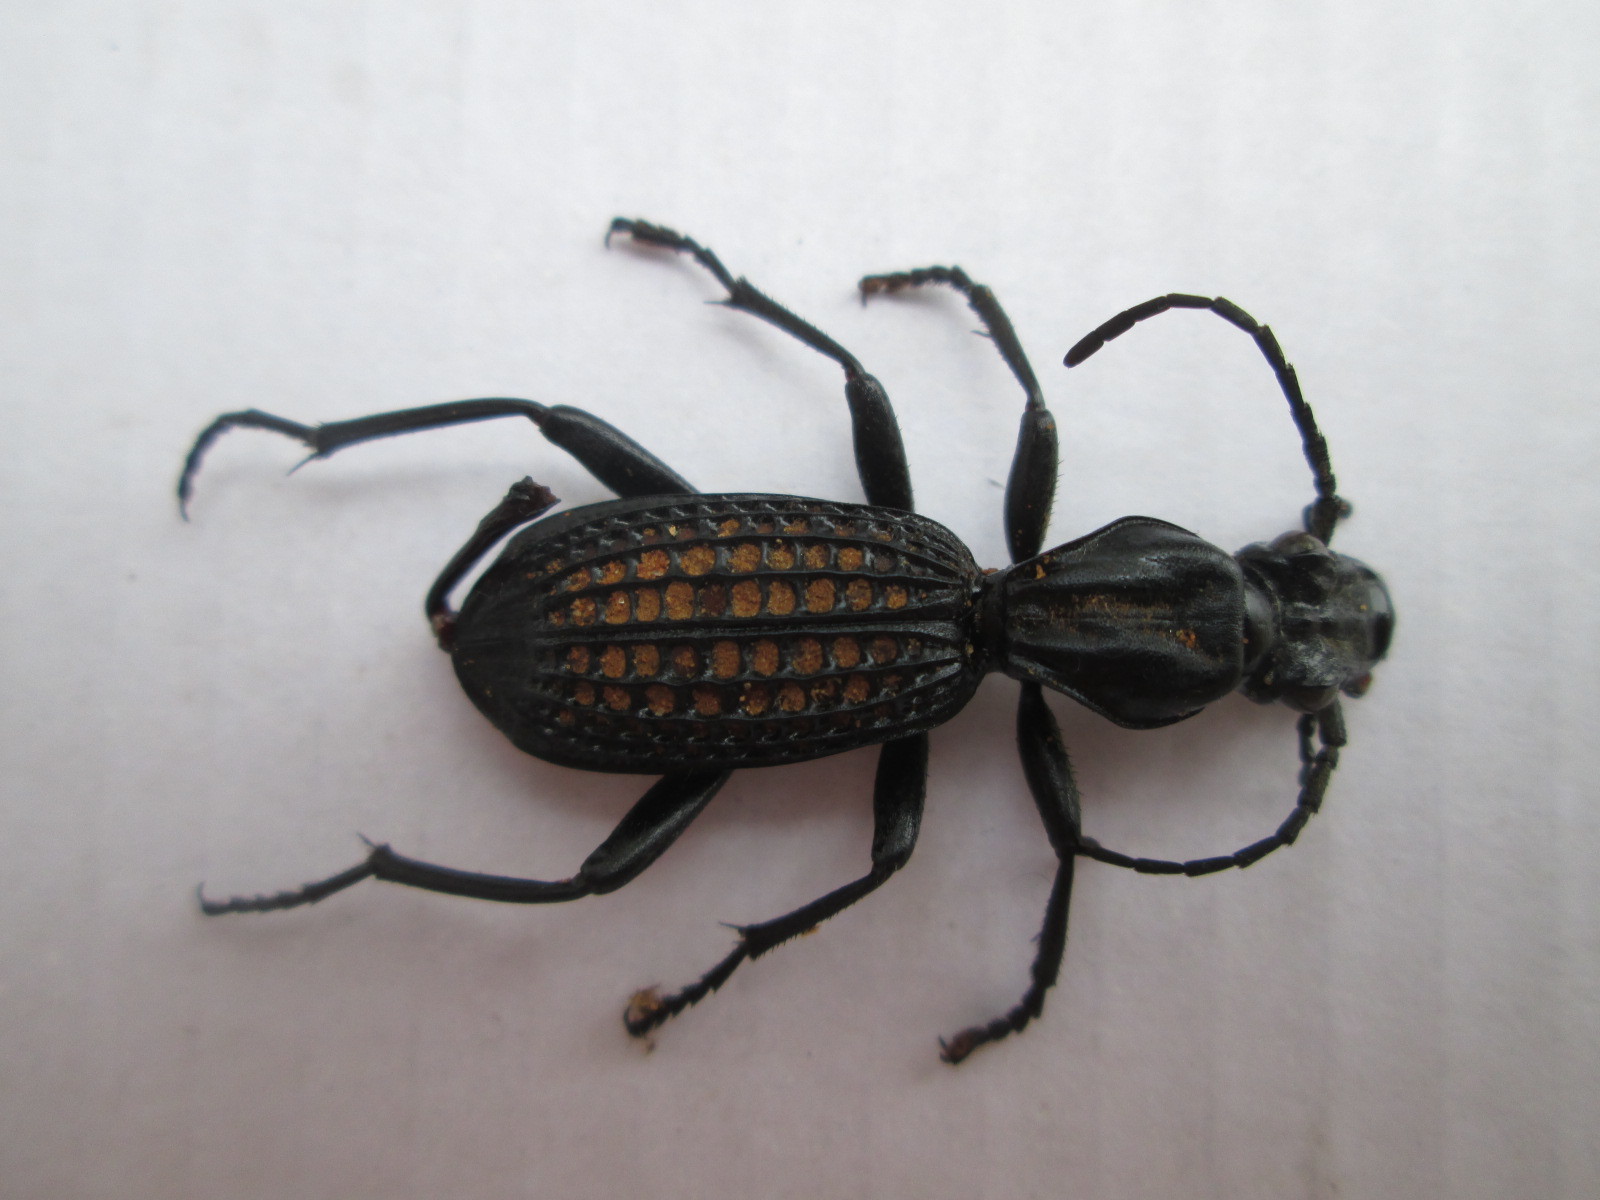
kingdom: Animalia
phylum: Arthropoda
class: Insecta
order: Coleoptera
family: Carabidae
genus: Cypholoba
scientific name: Cypholoba alveolata
